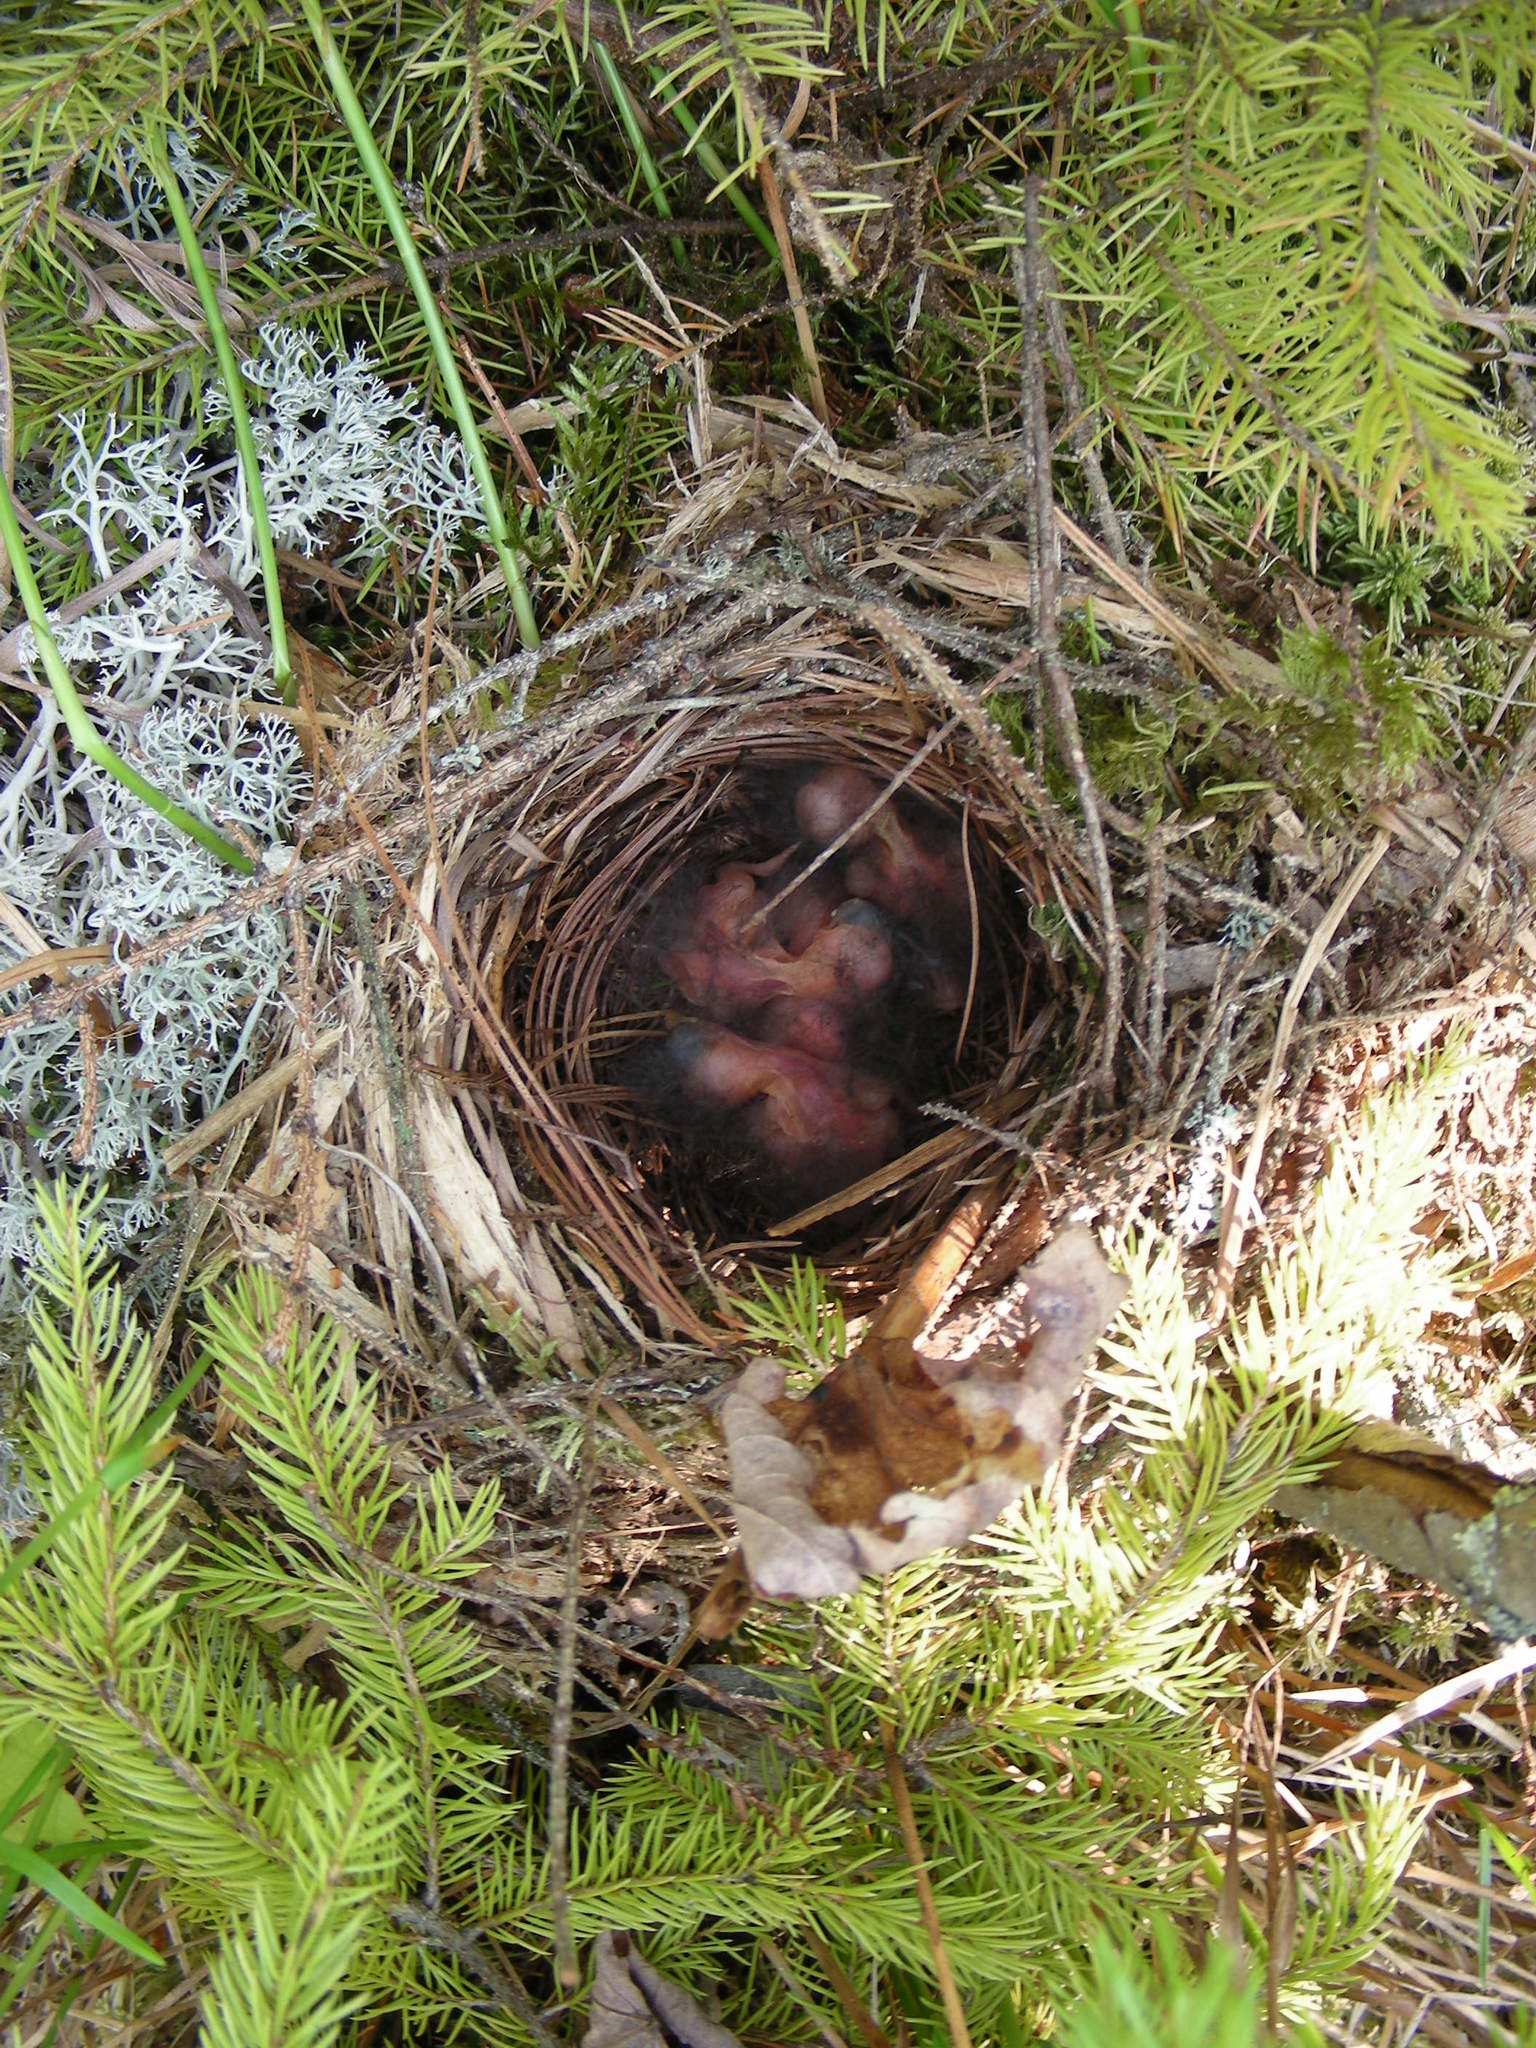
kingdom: Animalia
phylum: Chordata
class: Aves
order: Passeriformes
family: Turdidae
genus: Catharus
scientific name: Catharus guttatus
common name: Hermit thrush
